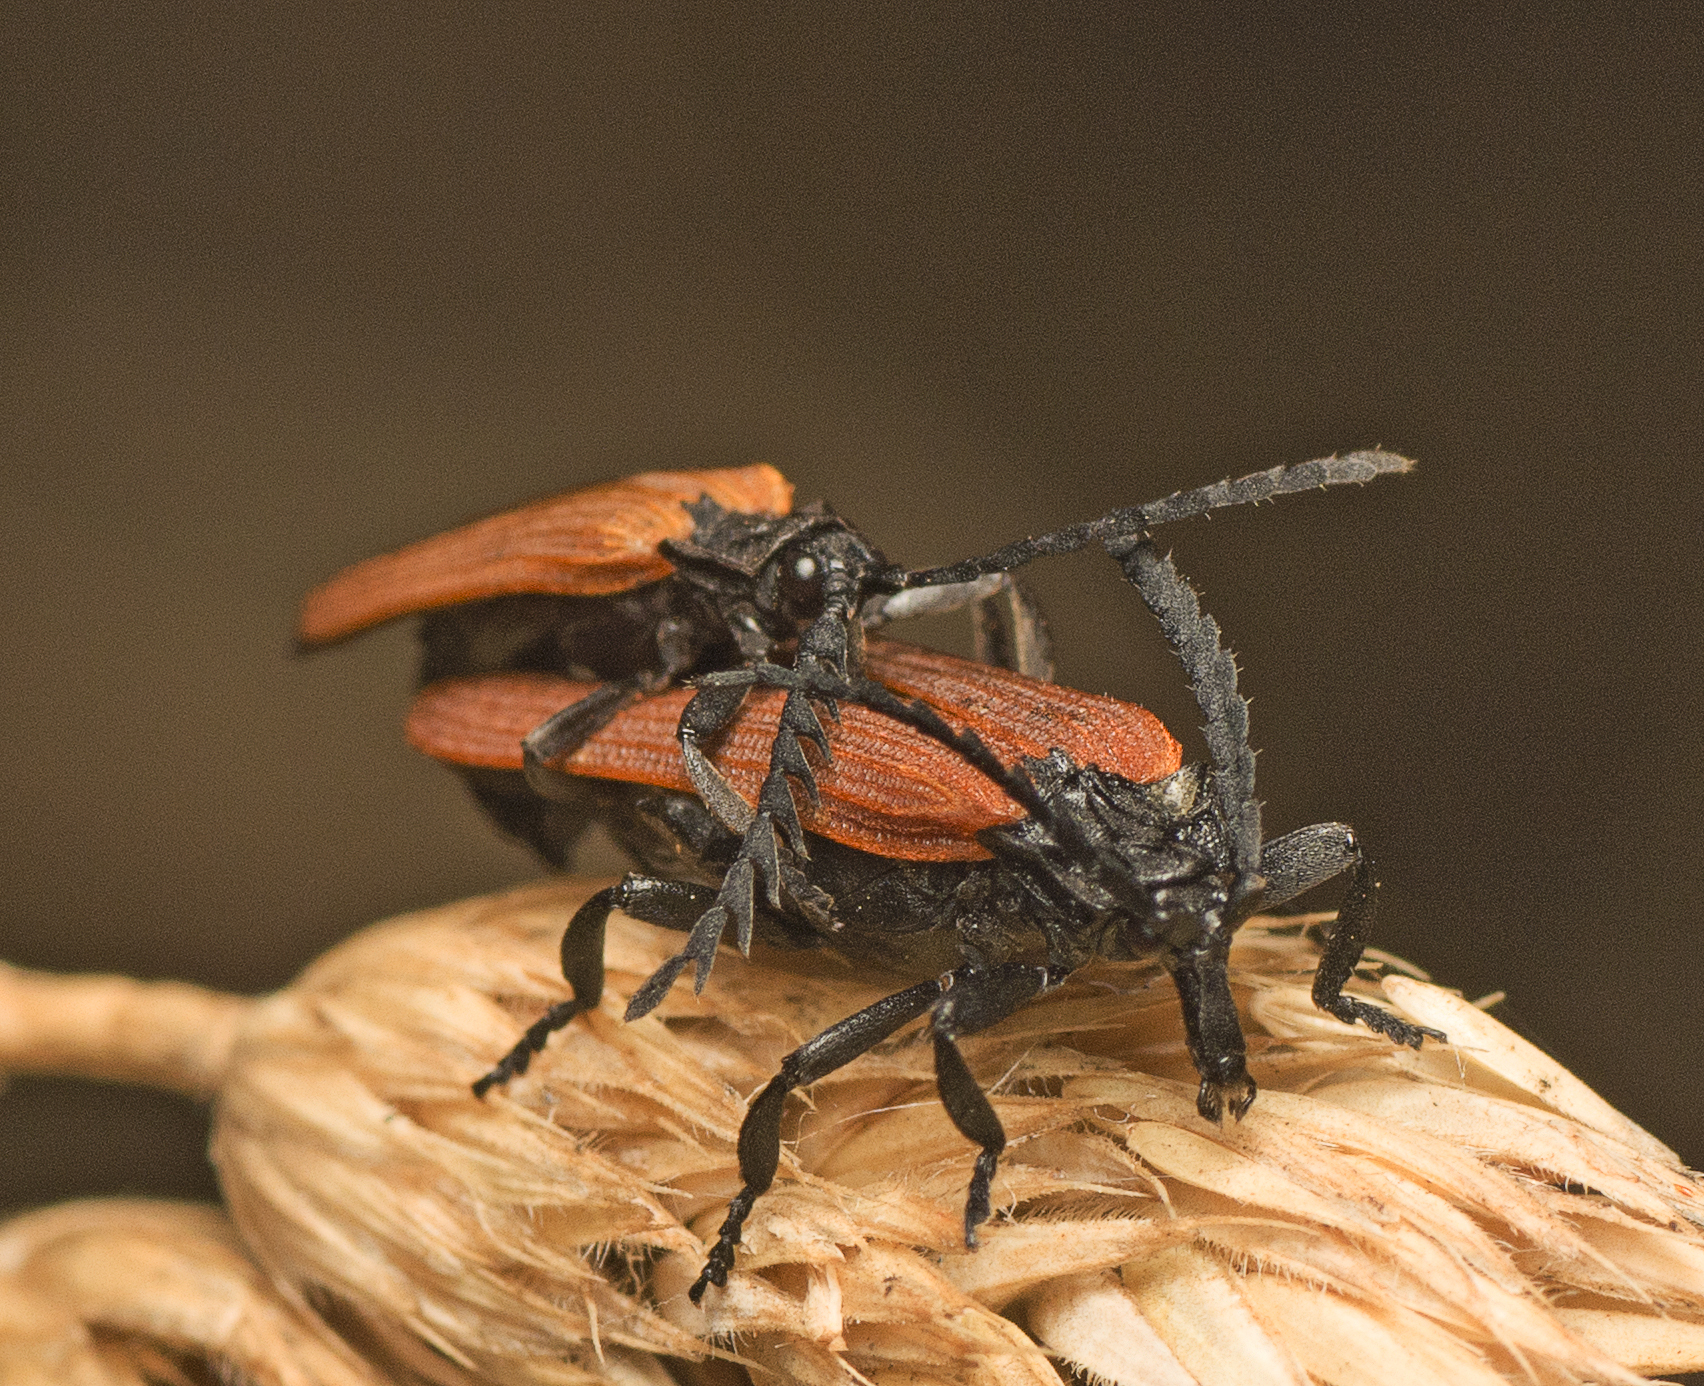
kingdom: Animalia
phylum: Arthropoda
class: Insecta
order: Coleoptera
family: Lycidae
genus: Porrostoma
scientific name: Porrostoma rhipidium
